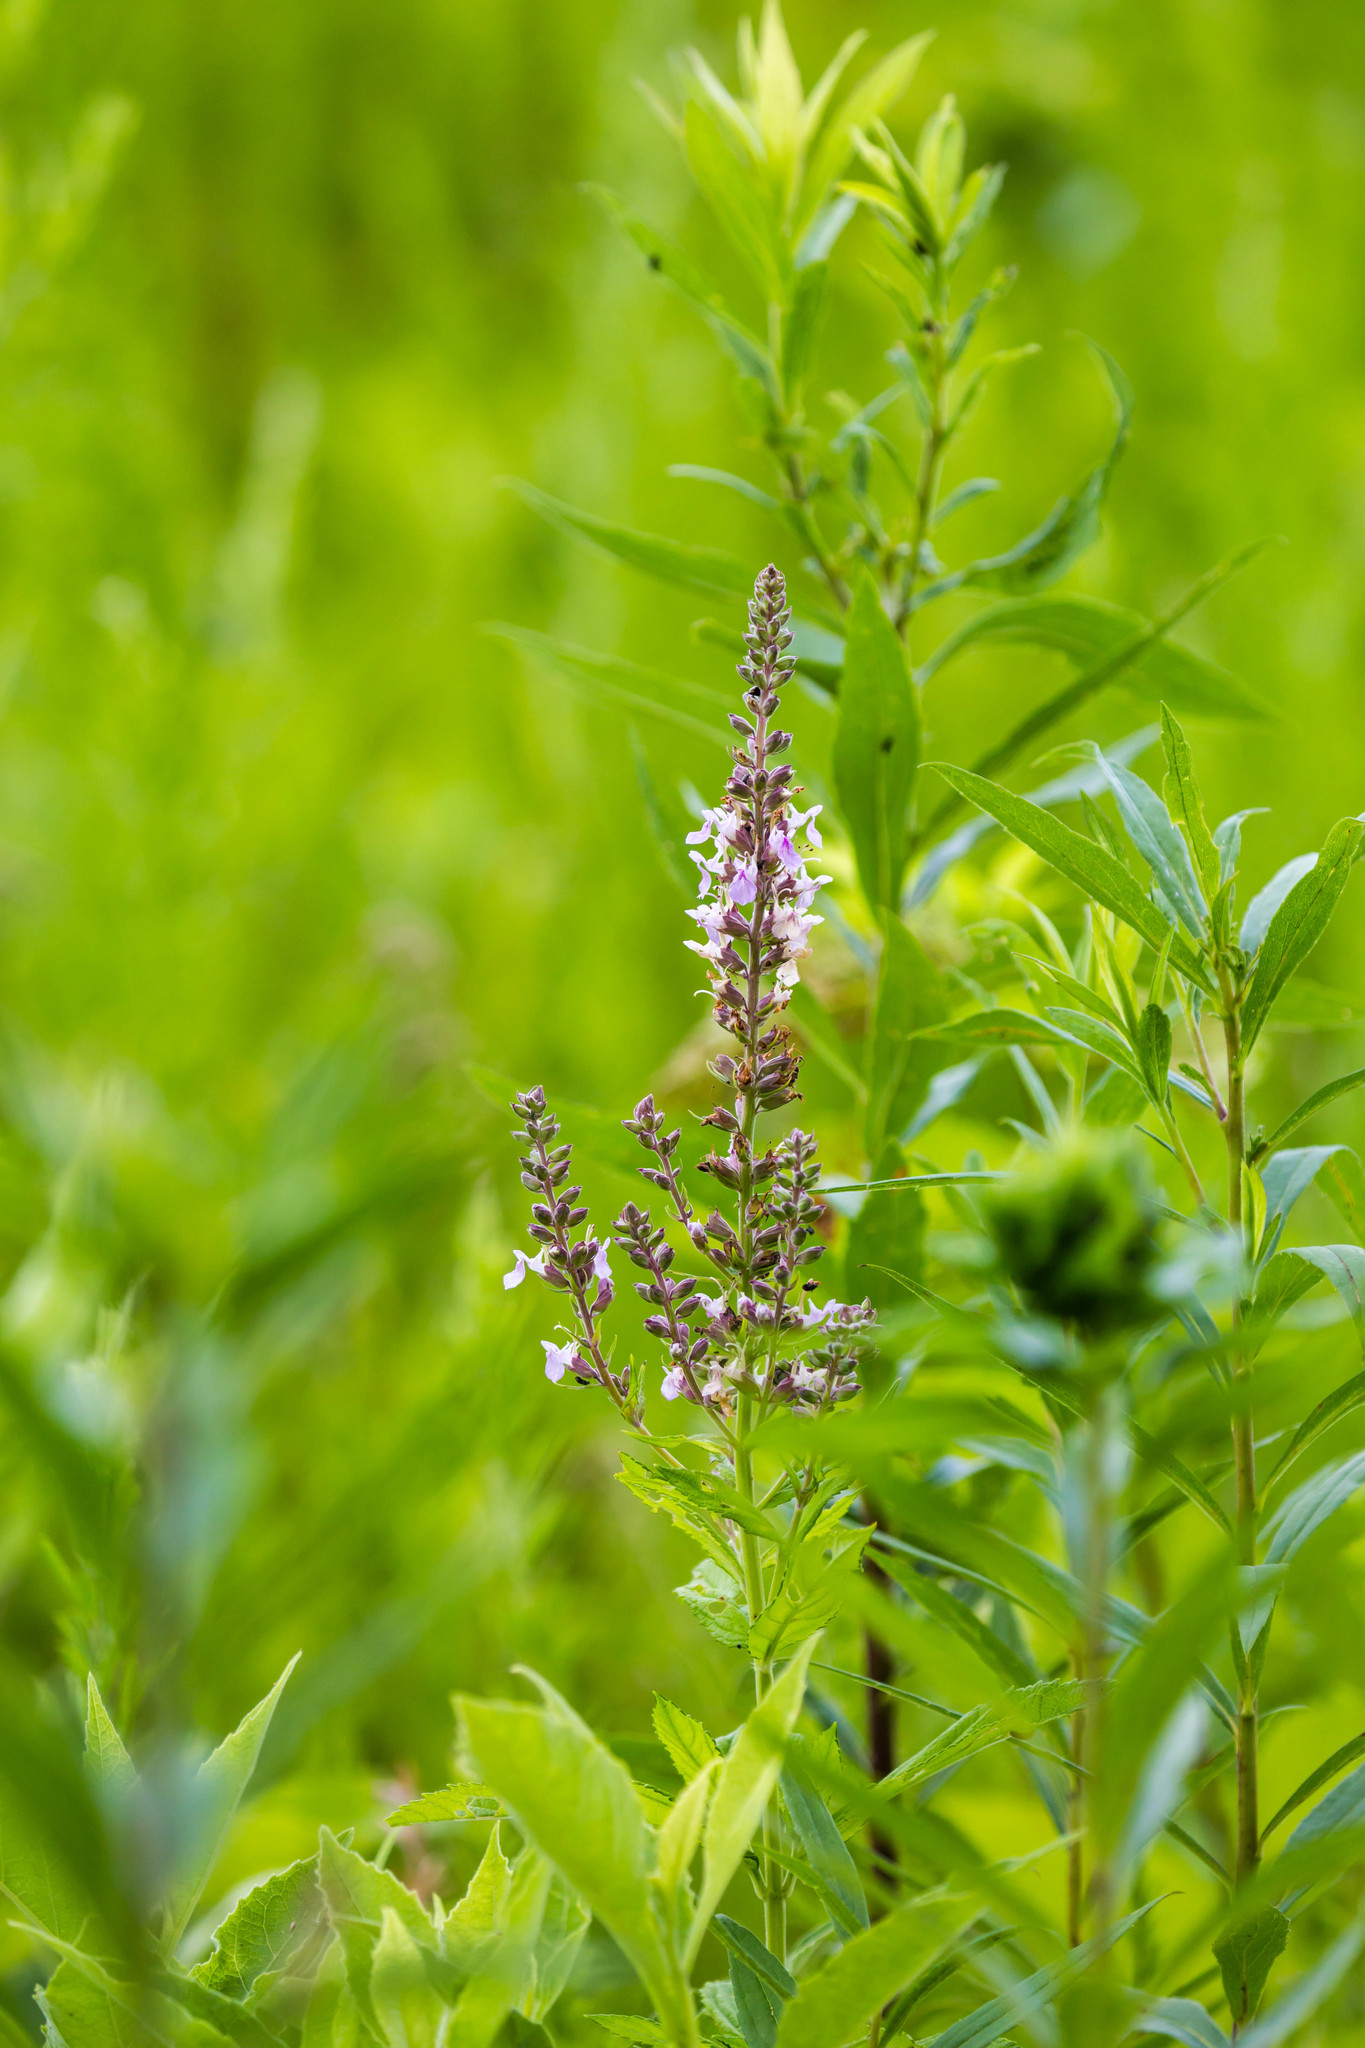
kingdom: Plantae
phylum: Tracheophyta
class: Magnoliopsida
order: Lamiales
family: Lamiaceae
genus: Teucrium
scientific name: Teucrium canadense
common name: American germander
